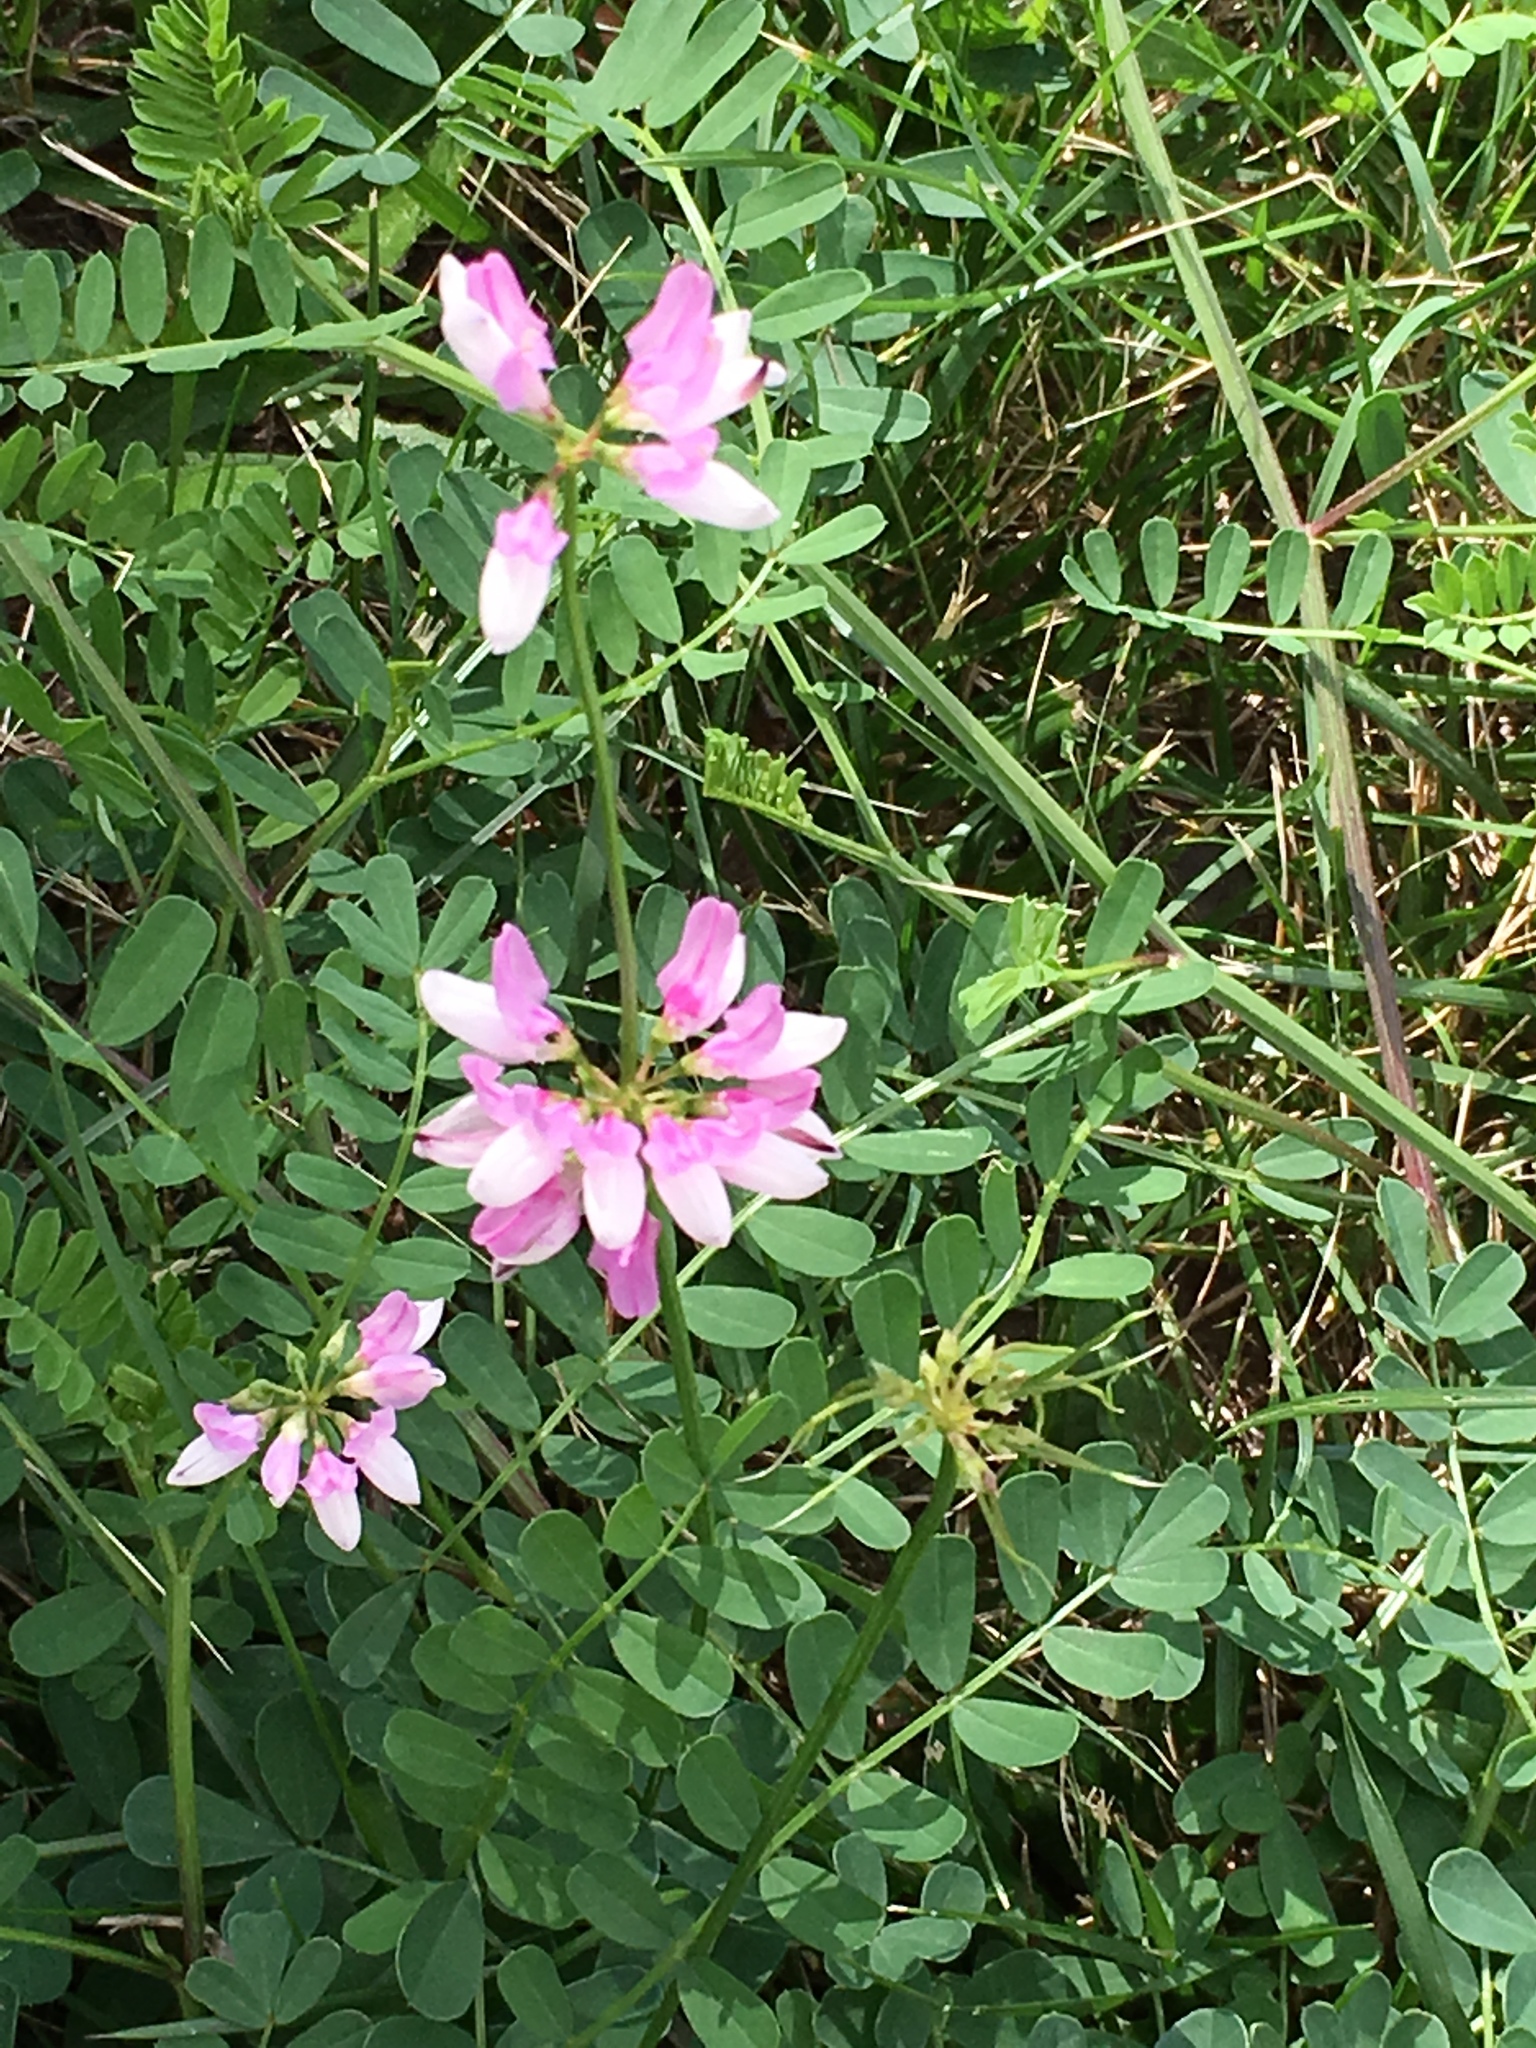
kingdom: Plantae
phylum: Tracheophyta
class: Magnoliopsida
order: Fabales
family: Fabaceae
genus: Coronilla
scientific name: Coronilla varia
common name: Crownvetch
